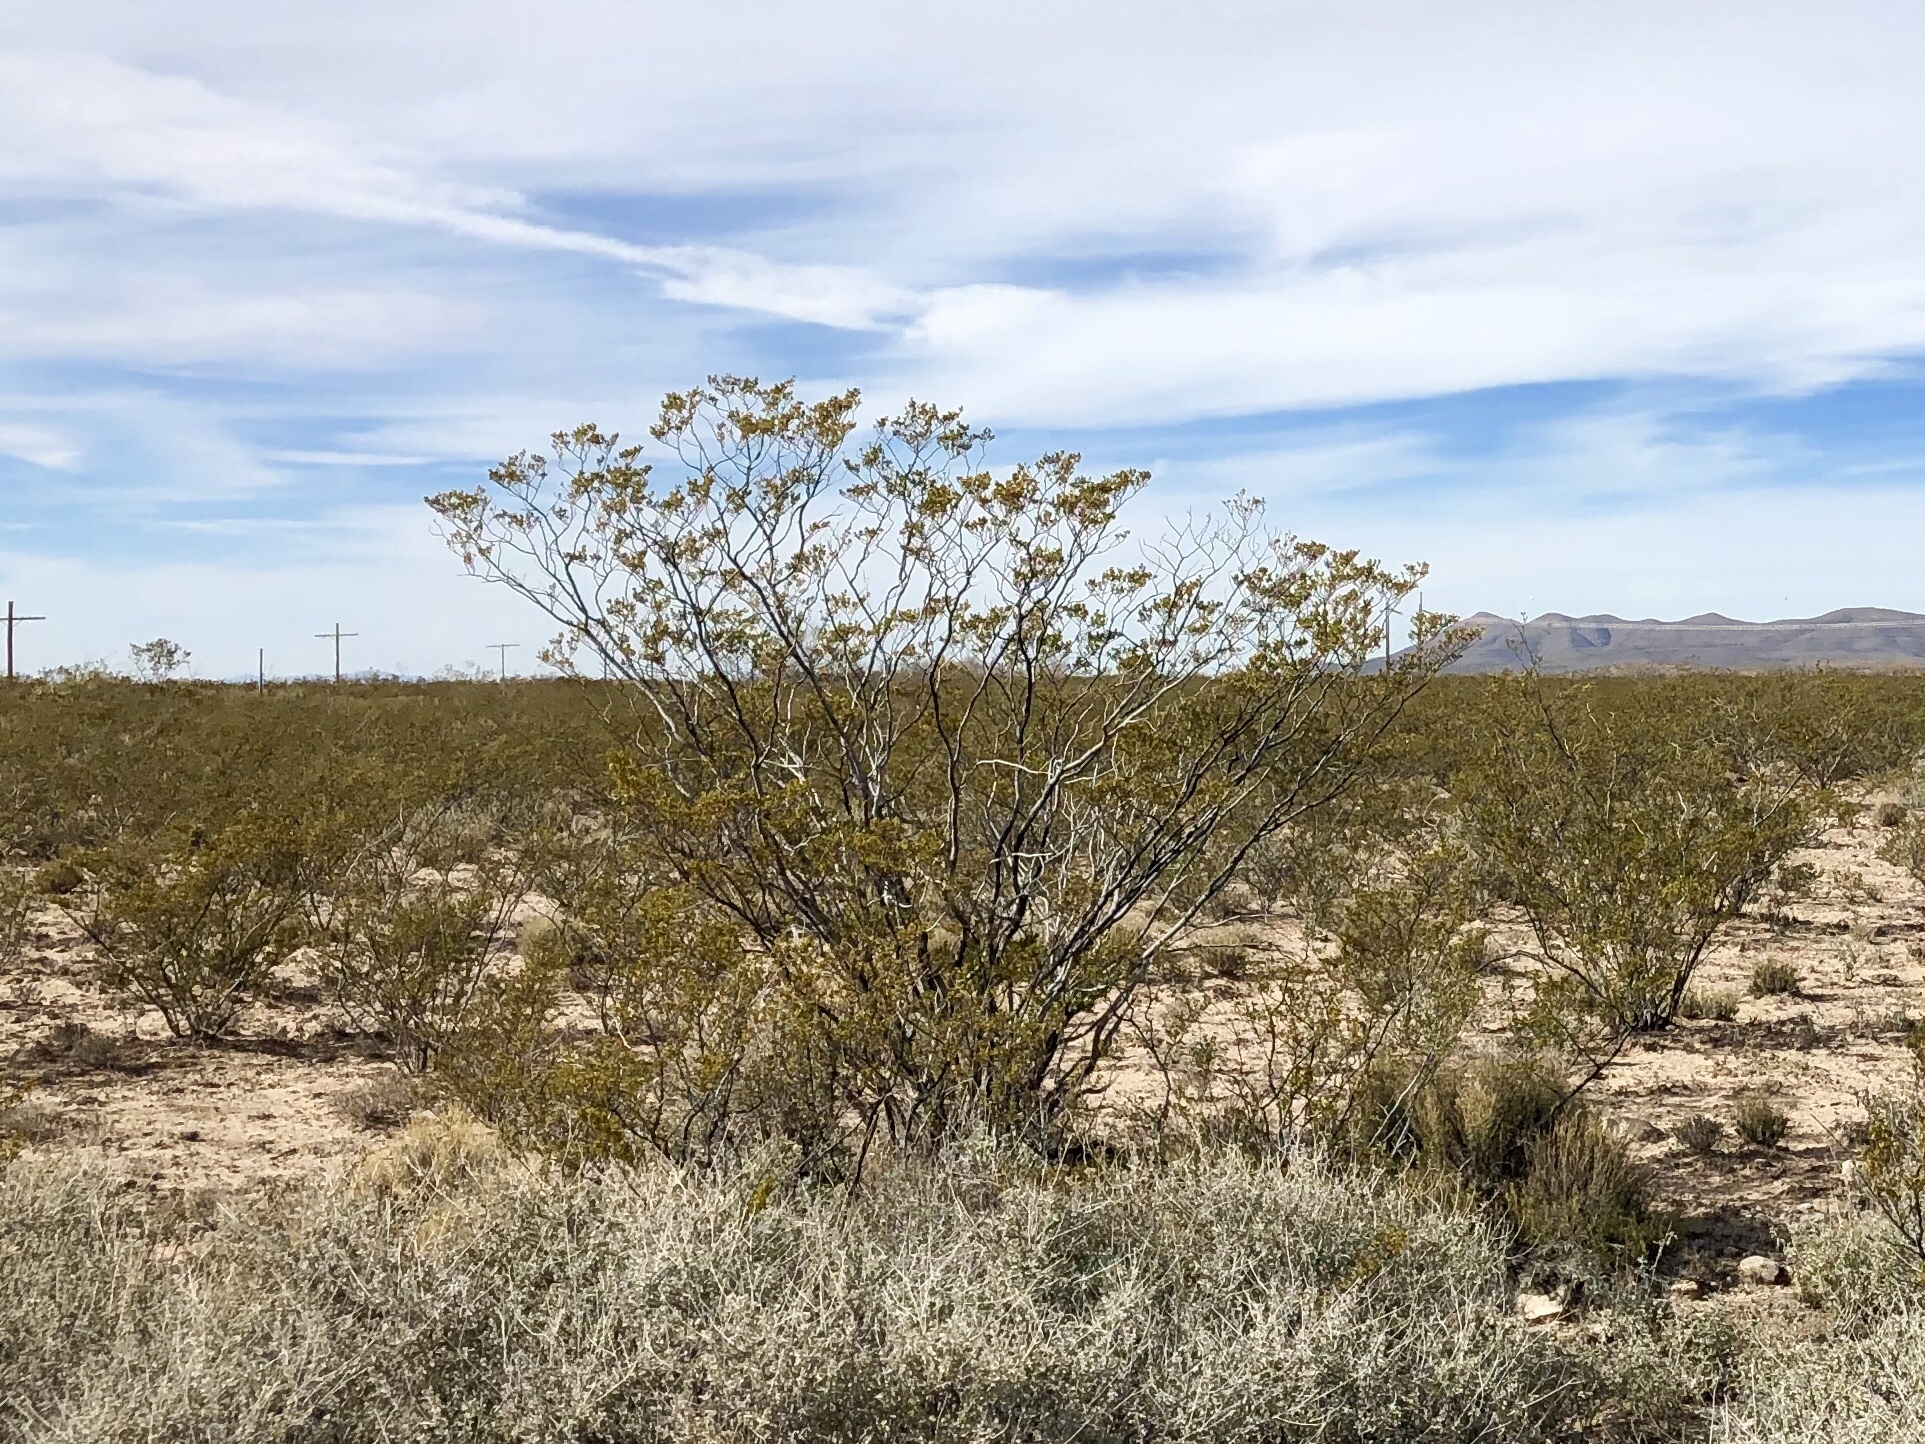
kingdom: Plantae
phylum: Tracheophyta
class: Magnoliopsida
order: Zygophyllales
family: Zygophyllaceae
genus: Larrea
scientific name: Larrea tridentata
